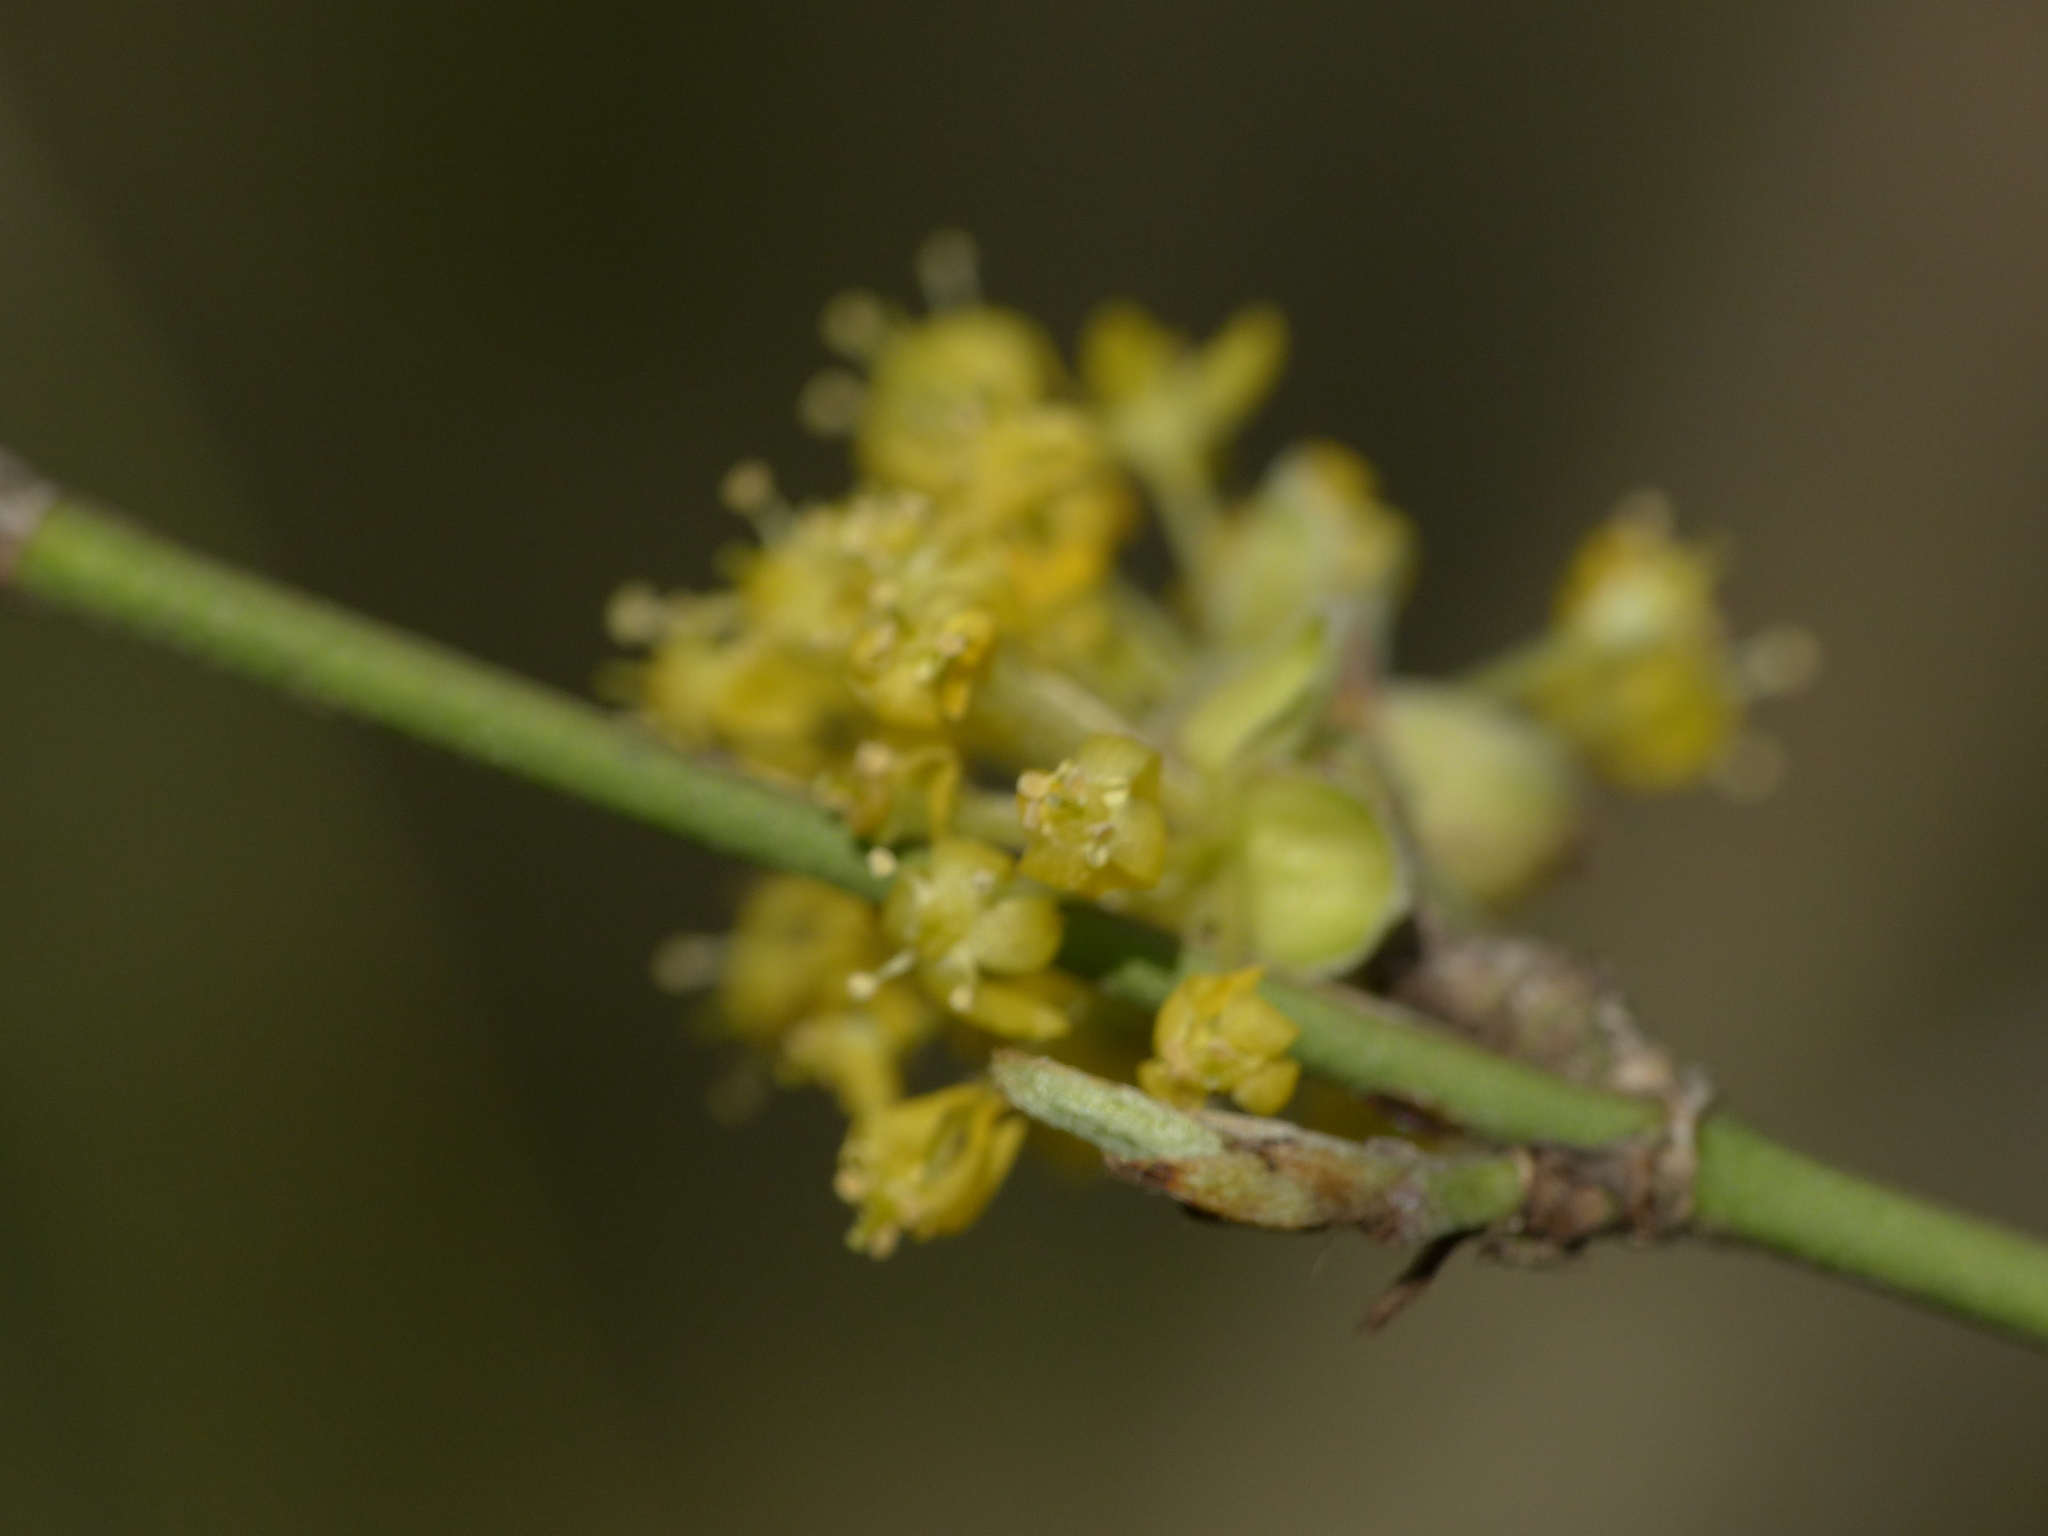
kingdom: Plantae
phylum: Tracheophyta
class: Magnoliopsida
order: Cornales
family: Cornaceae
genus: Cornus
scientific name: Cornus mas
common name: Cornelian-cherry
